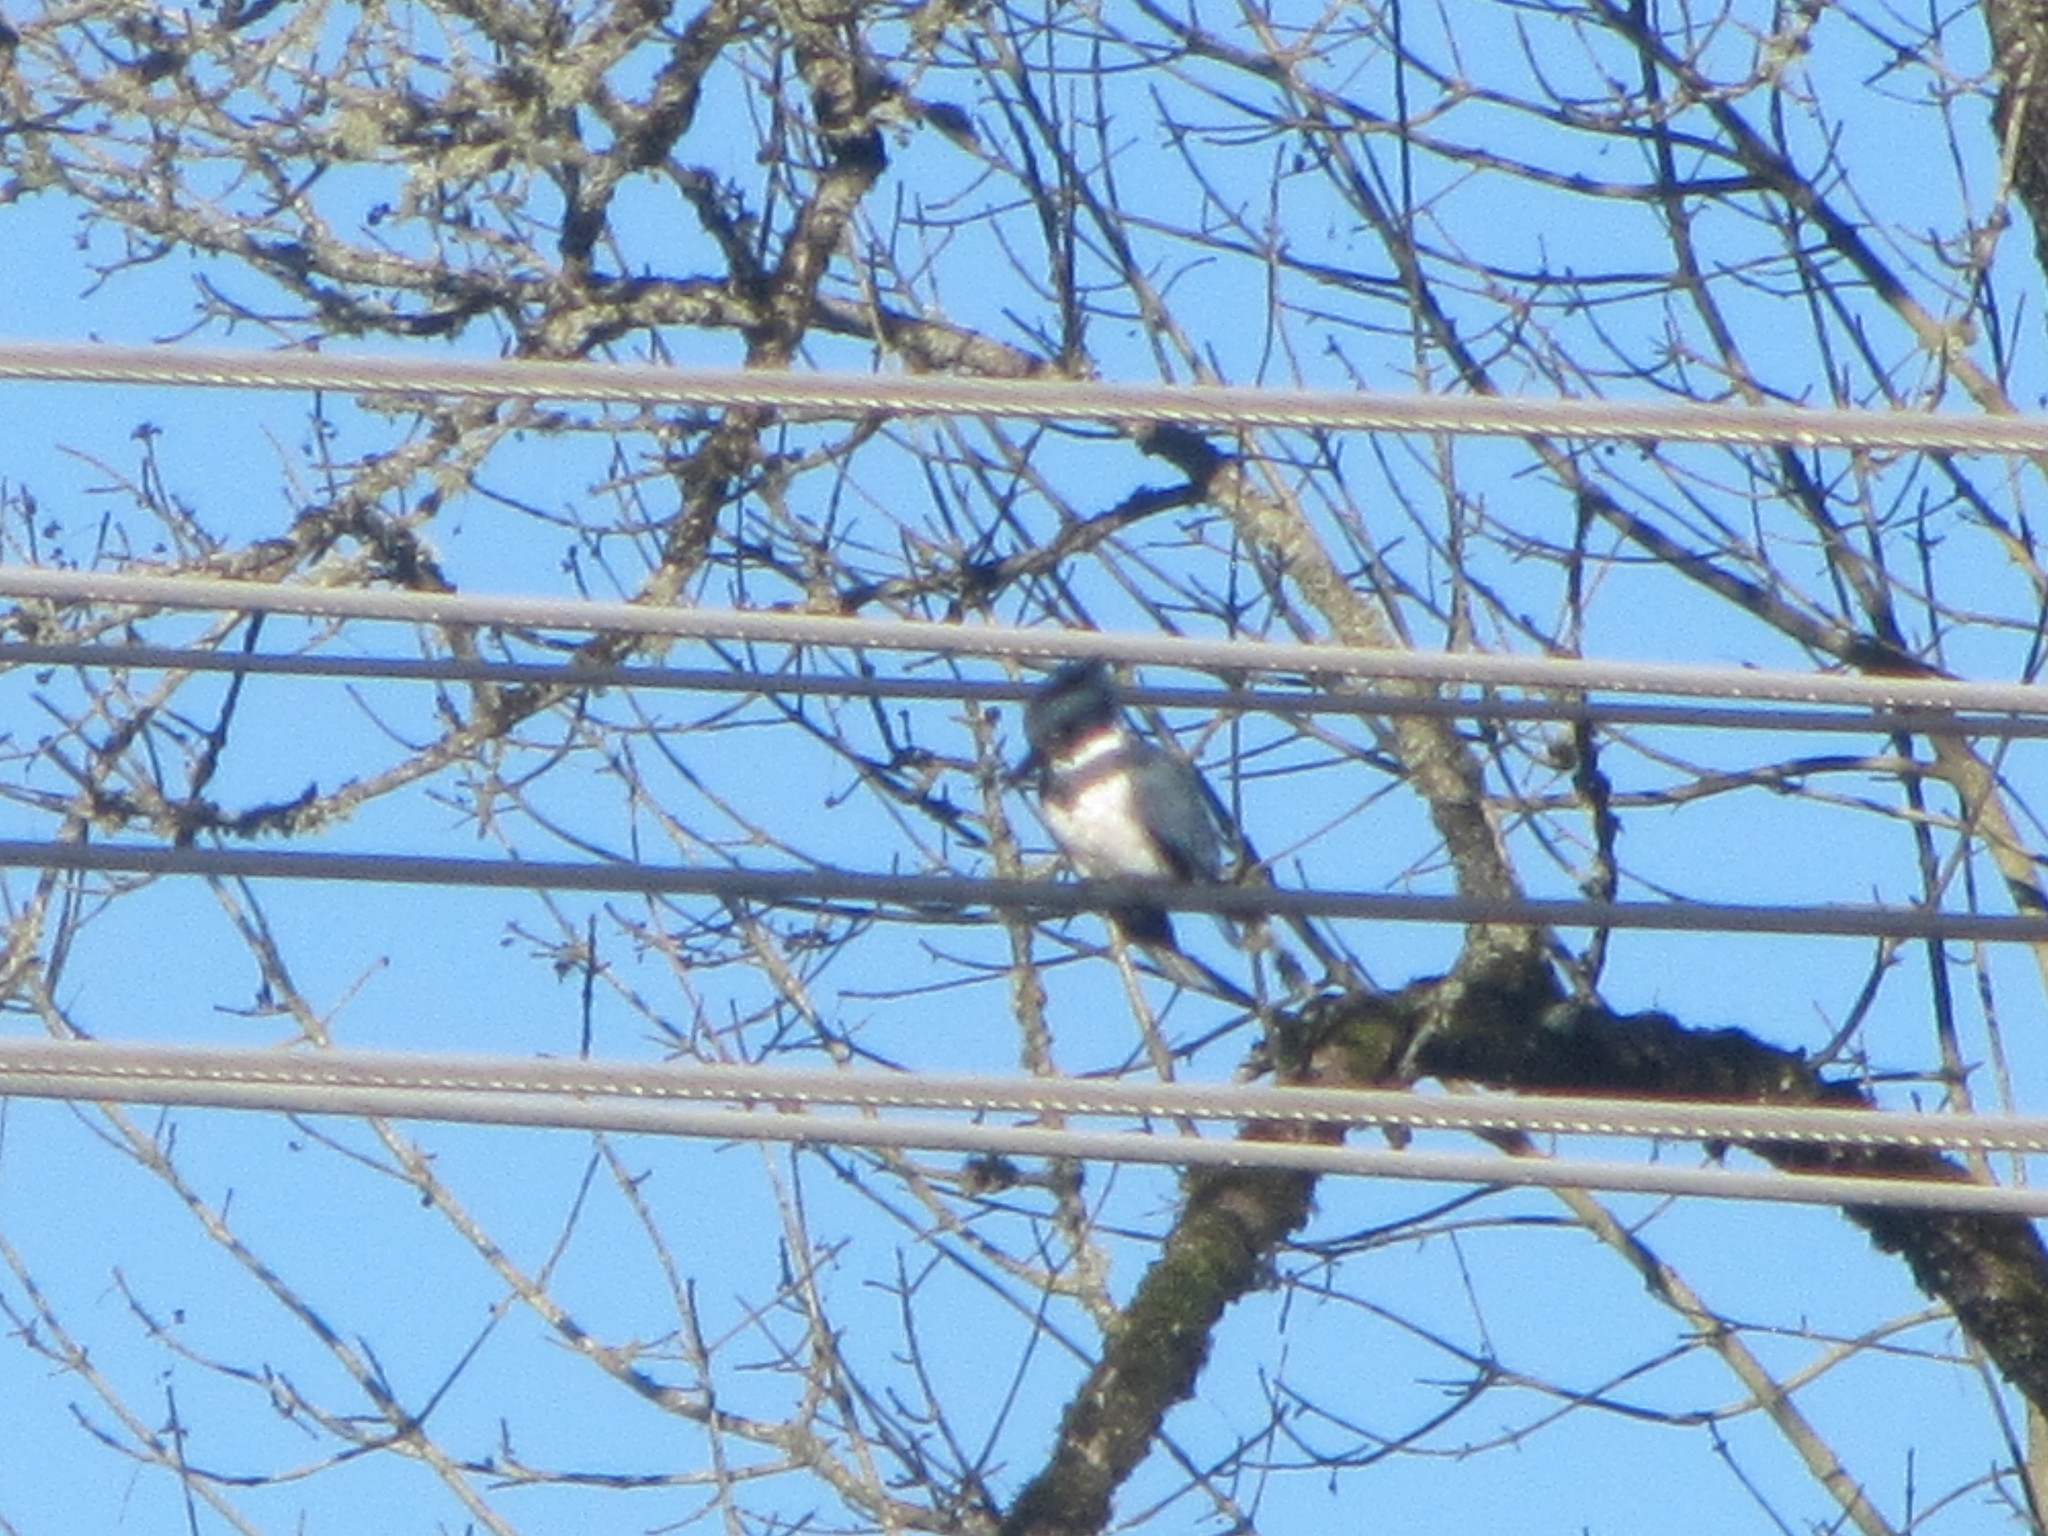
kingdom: Animalia
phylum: Chordata
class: Aves
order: Coraciiformes
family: Alcedinidae
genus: Megaceryle
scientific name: Megaceryle alcyon
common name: Belted kingfisher
